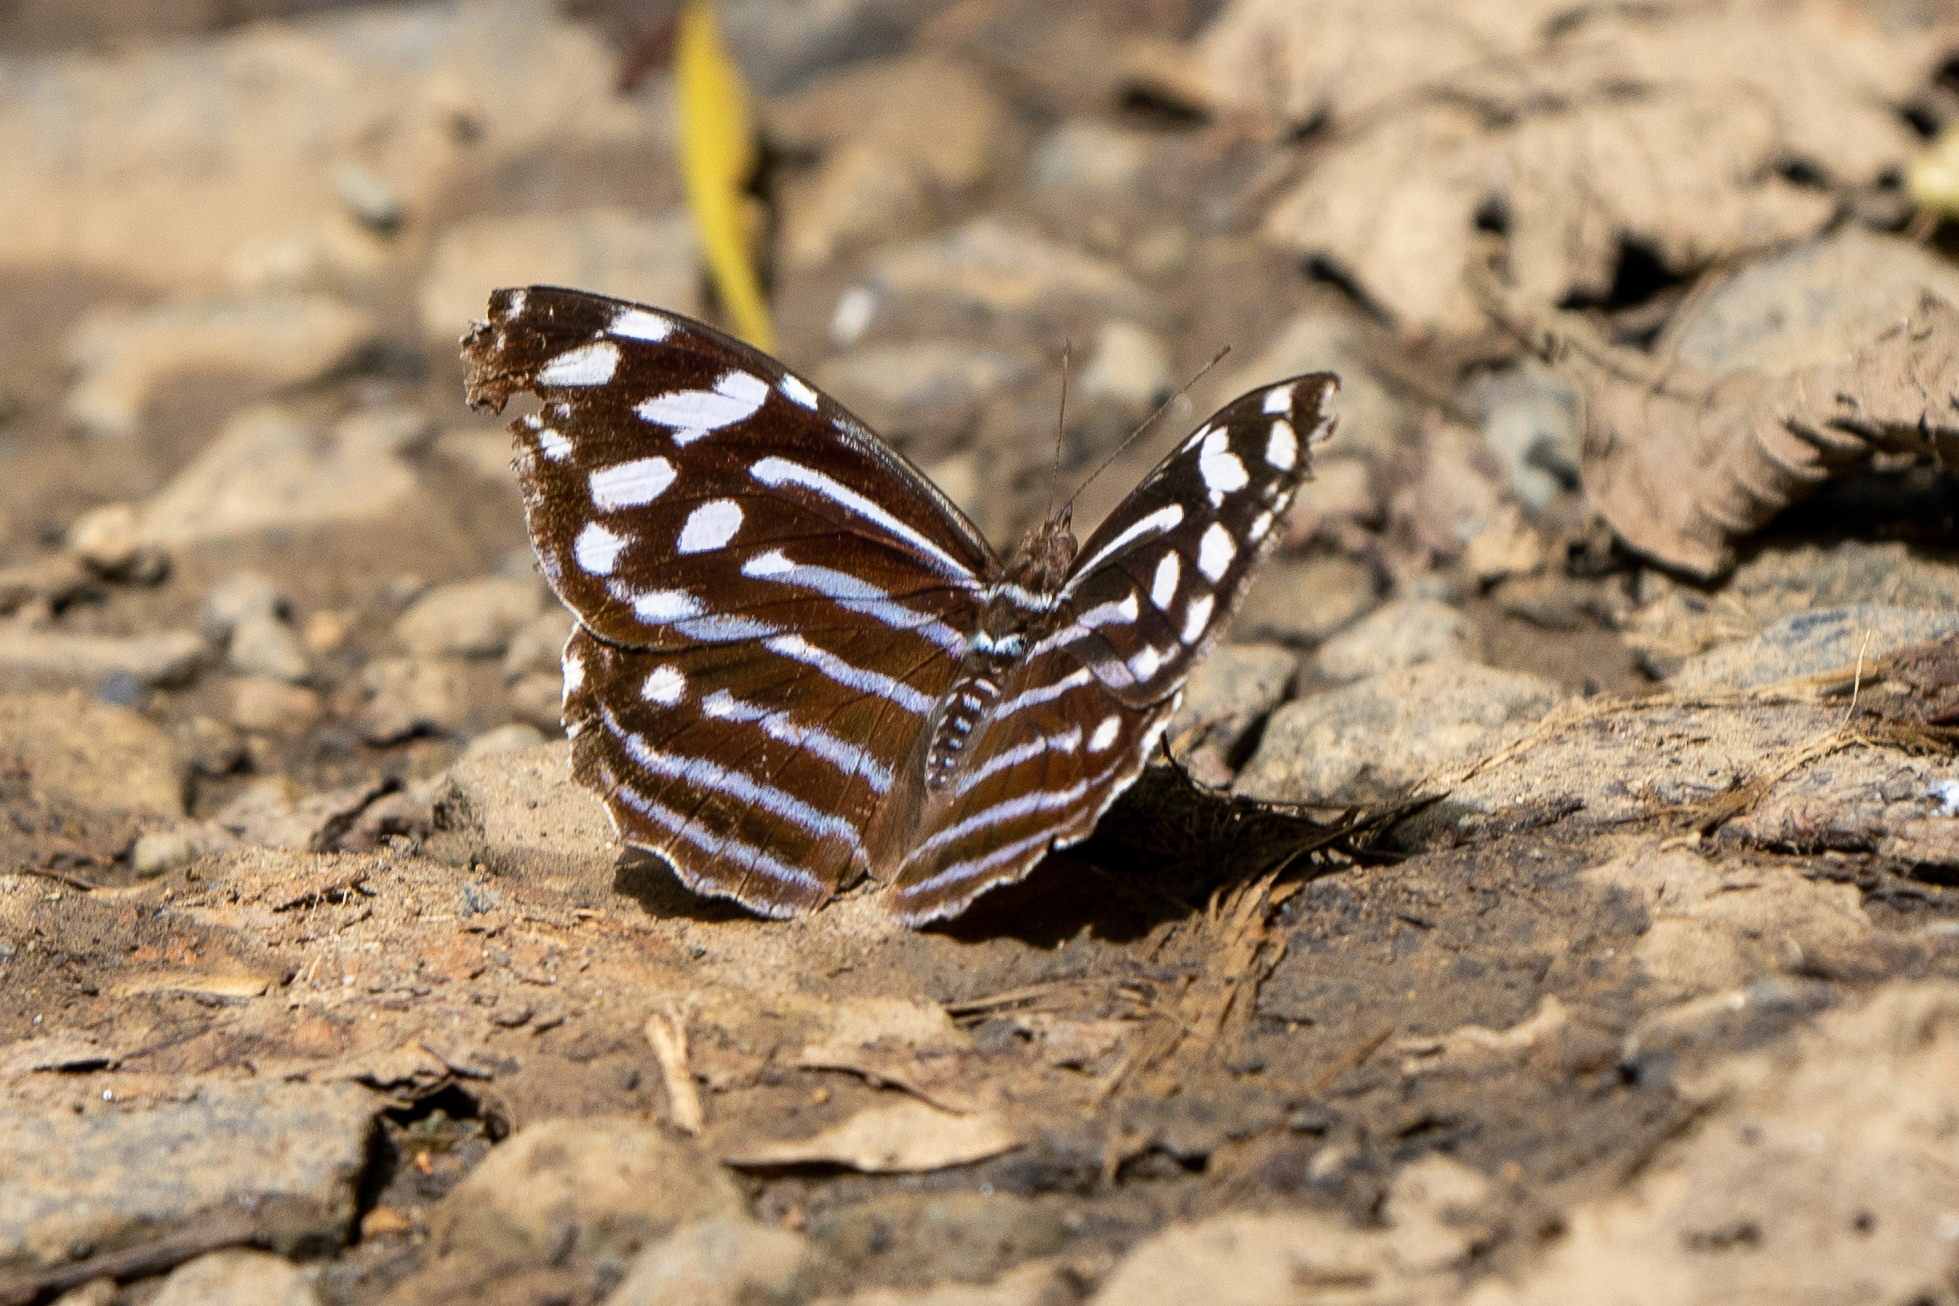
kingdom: Animalia
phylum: Arthropoda
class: Insecta
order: Lepidoptera
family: Nymphalidae
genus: Myscelia
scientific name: Myscelia leucocyana
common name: Pale bluewing
